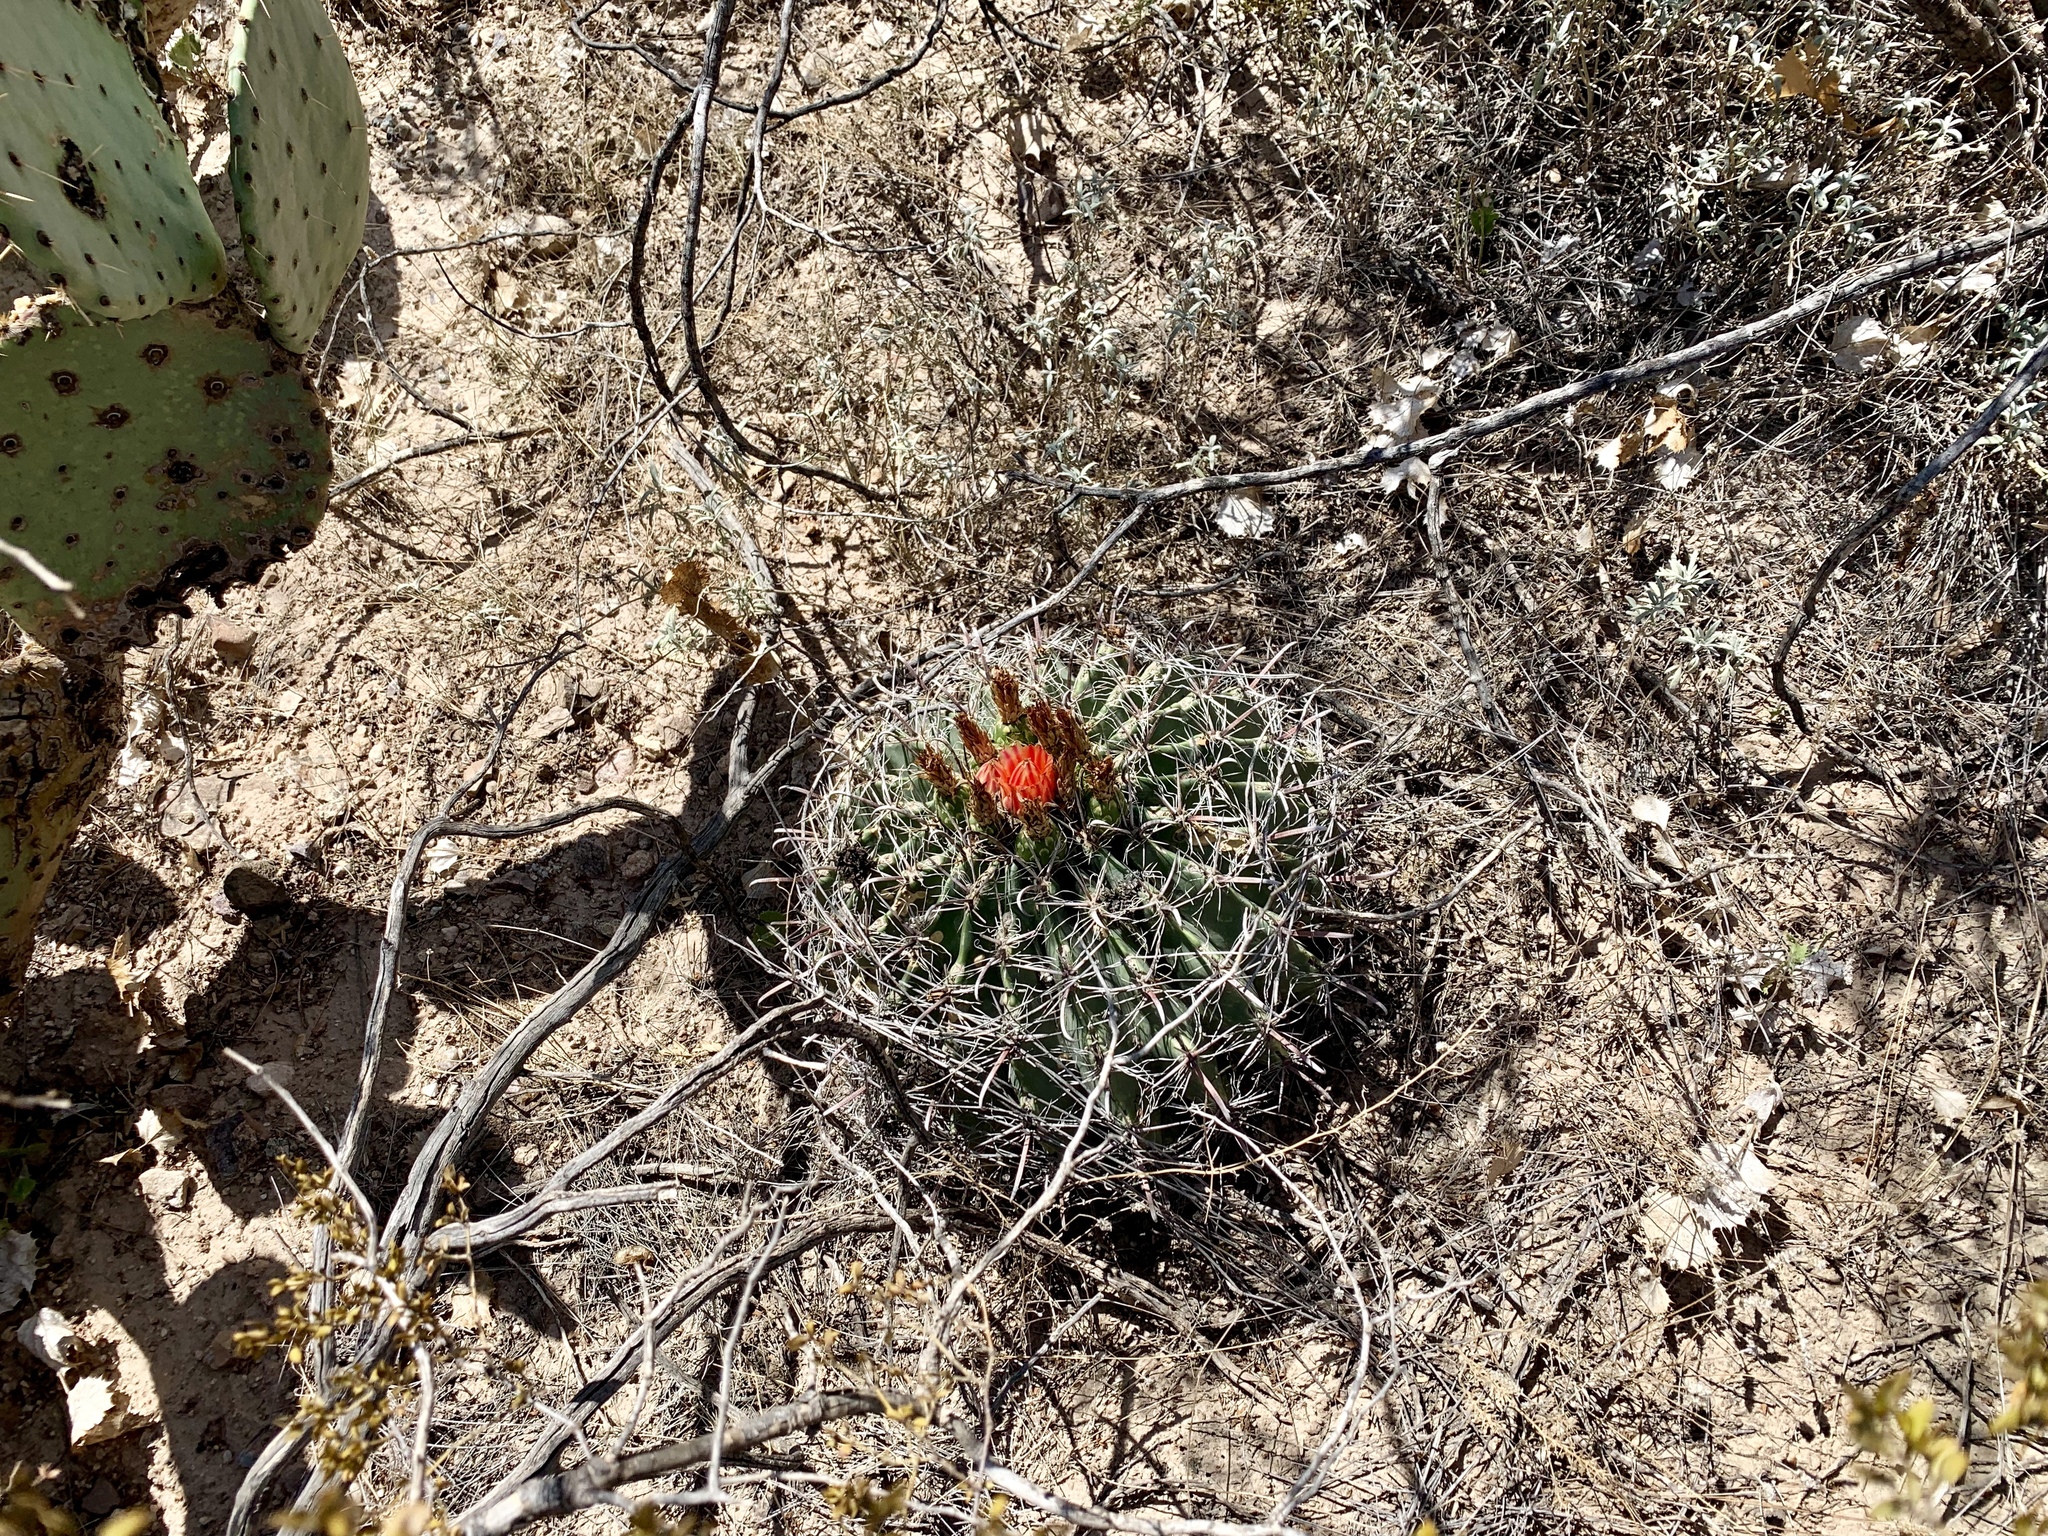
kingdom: Plantae
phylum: Tracheophyta
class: Magnoliopsida
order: Caryophyllales
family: Cactaceae
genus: Ferocactus
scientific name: Ferocactus wislizeni
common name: Candy barrel cactus
